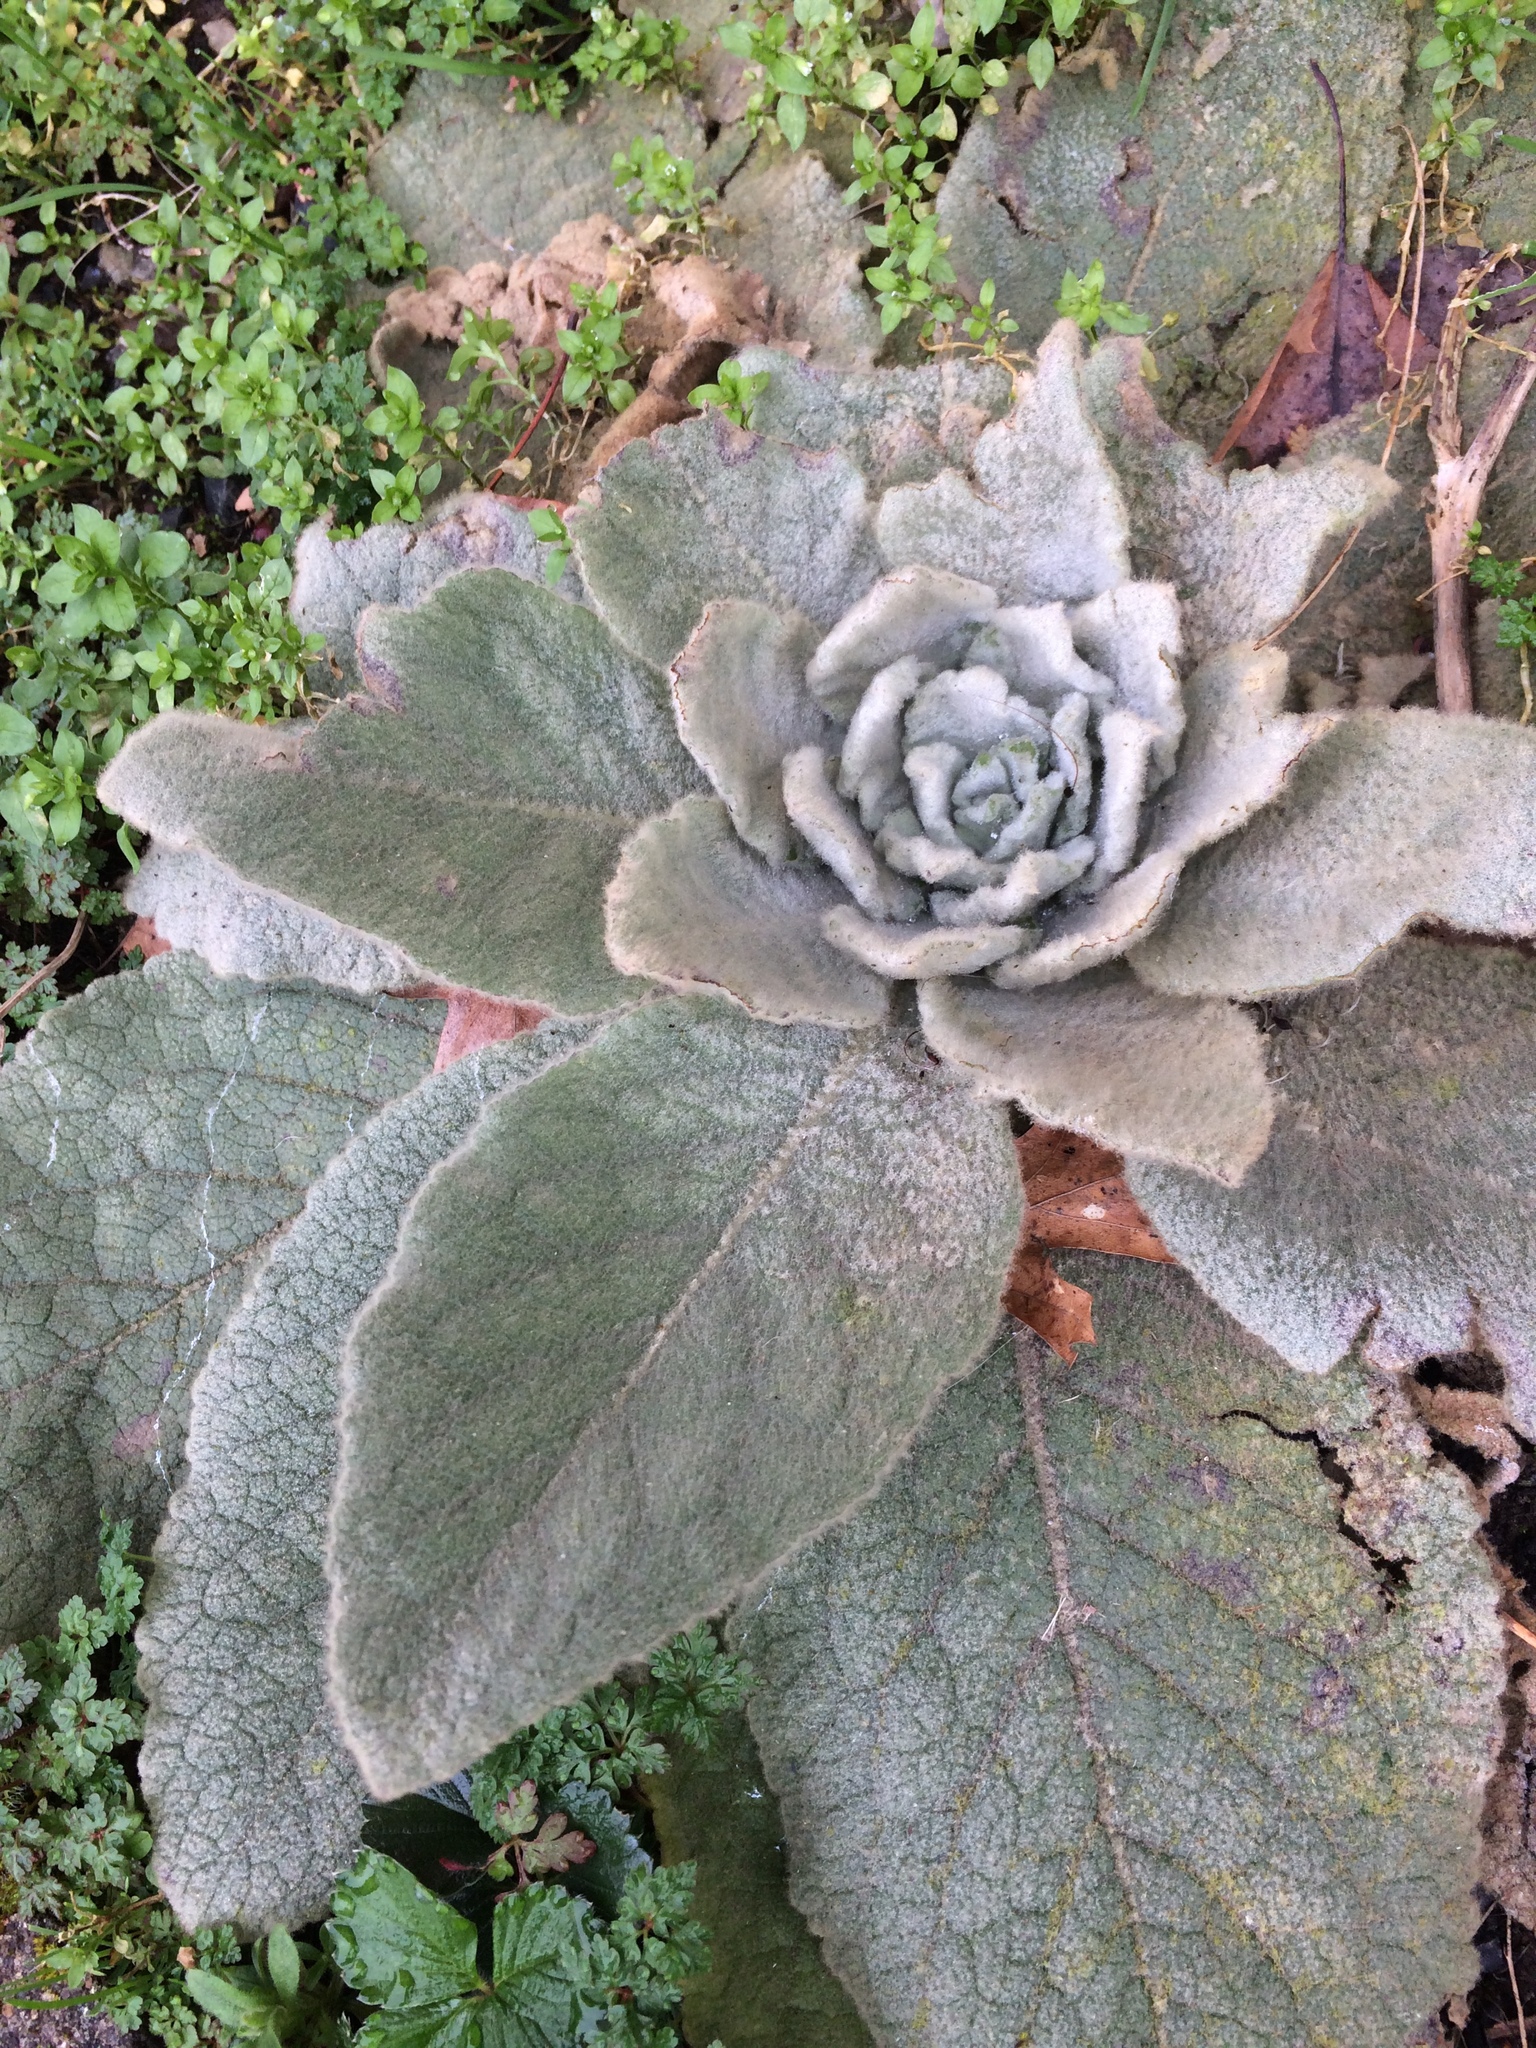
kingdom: Plantae
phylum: Tracheophyta
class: Magnoliopsida
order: Lamiales
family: Scrophulariaceae
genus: Verbascum
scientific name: Verbascum thapsus
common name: Common mullein
